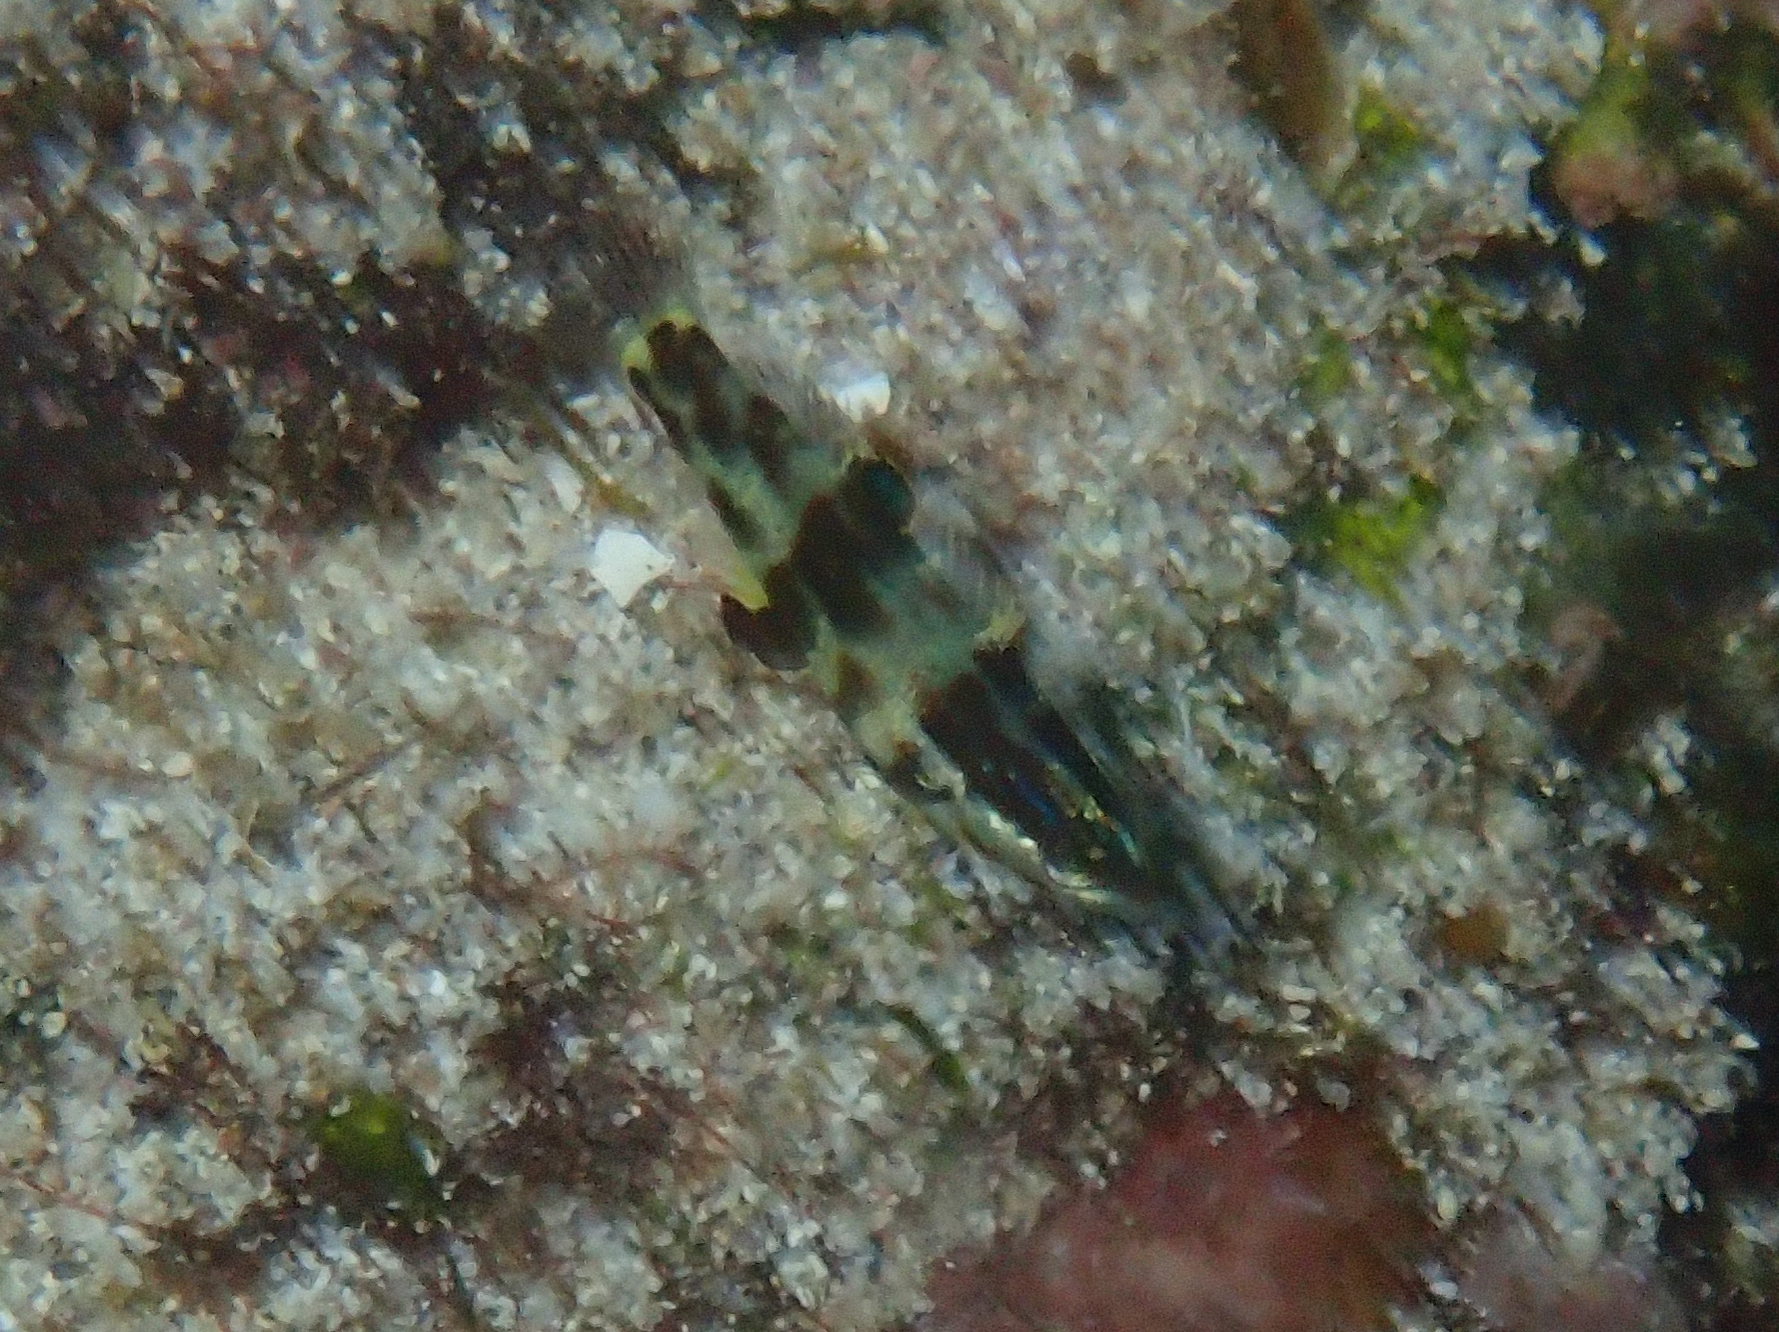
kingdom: Animalia
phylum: Chordata
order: Perciformes
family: Labridae
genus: Halichoeres
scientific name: Halichoeres nicholsi
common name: Spinster wrasse
